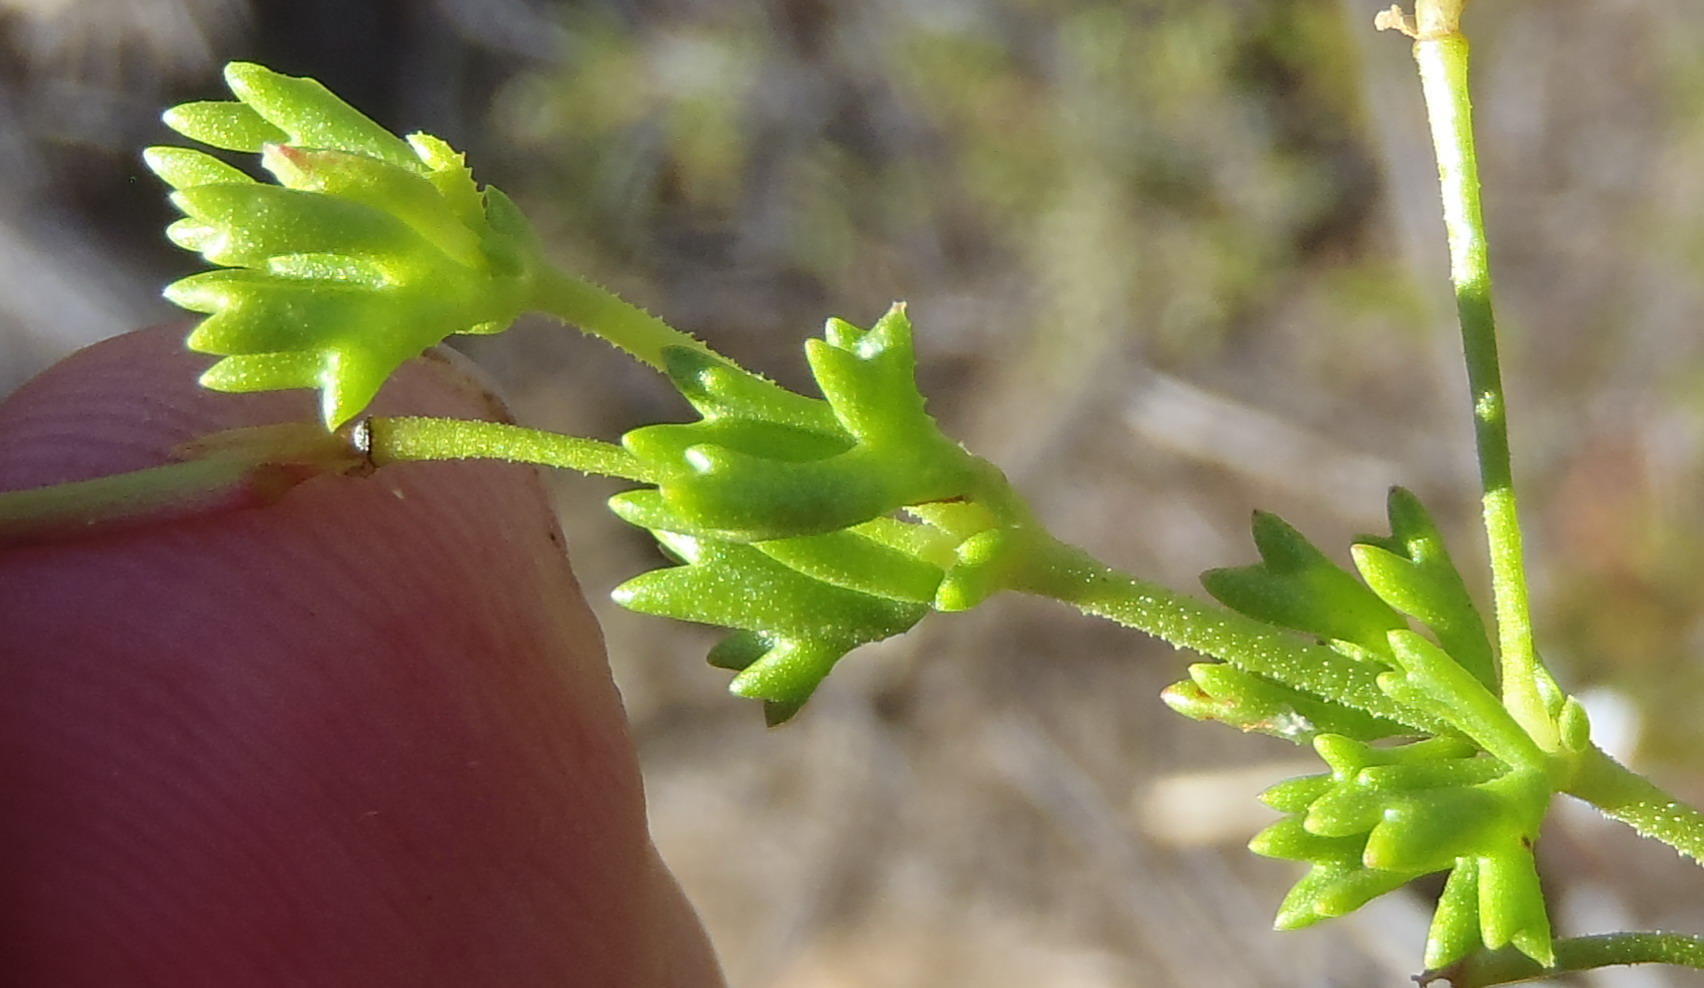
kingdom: Plantae
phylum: Tracheophyta
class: Magnoliopsida
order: Geraniales
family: Geraniaceae
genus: Pelargonium
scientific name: Pelargonium fruticosum
